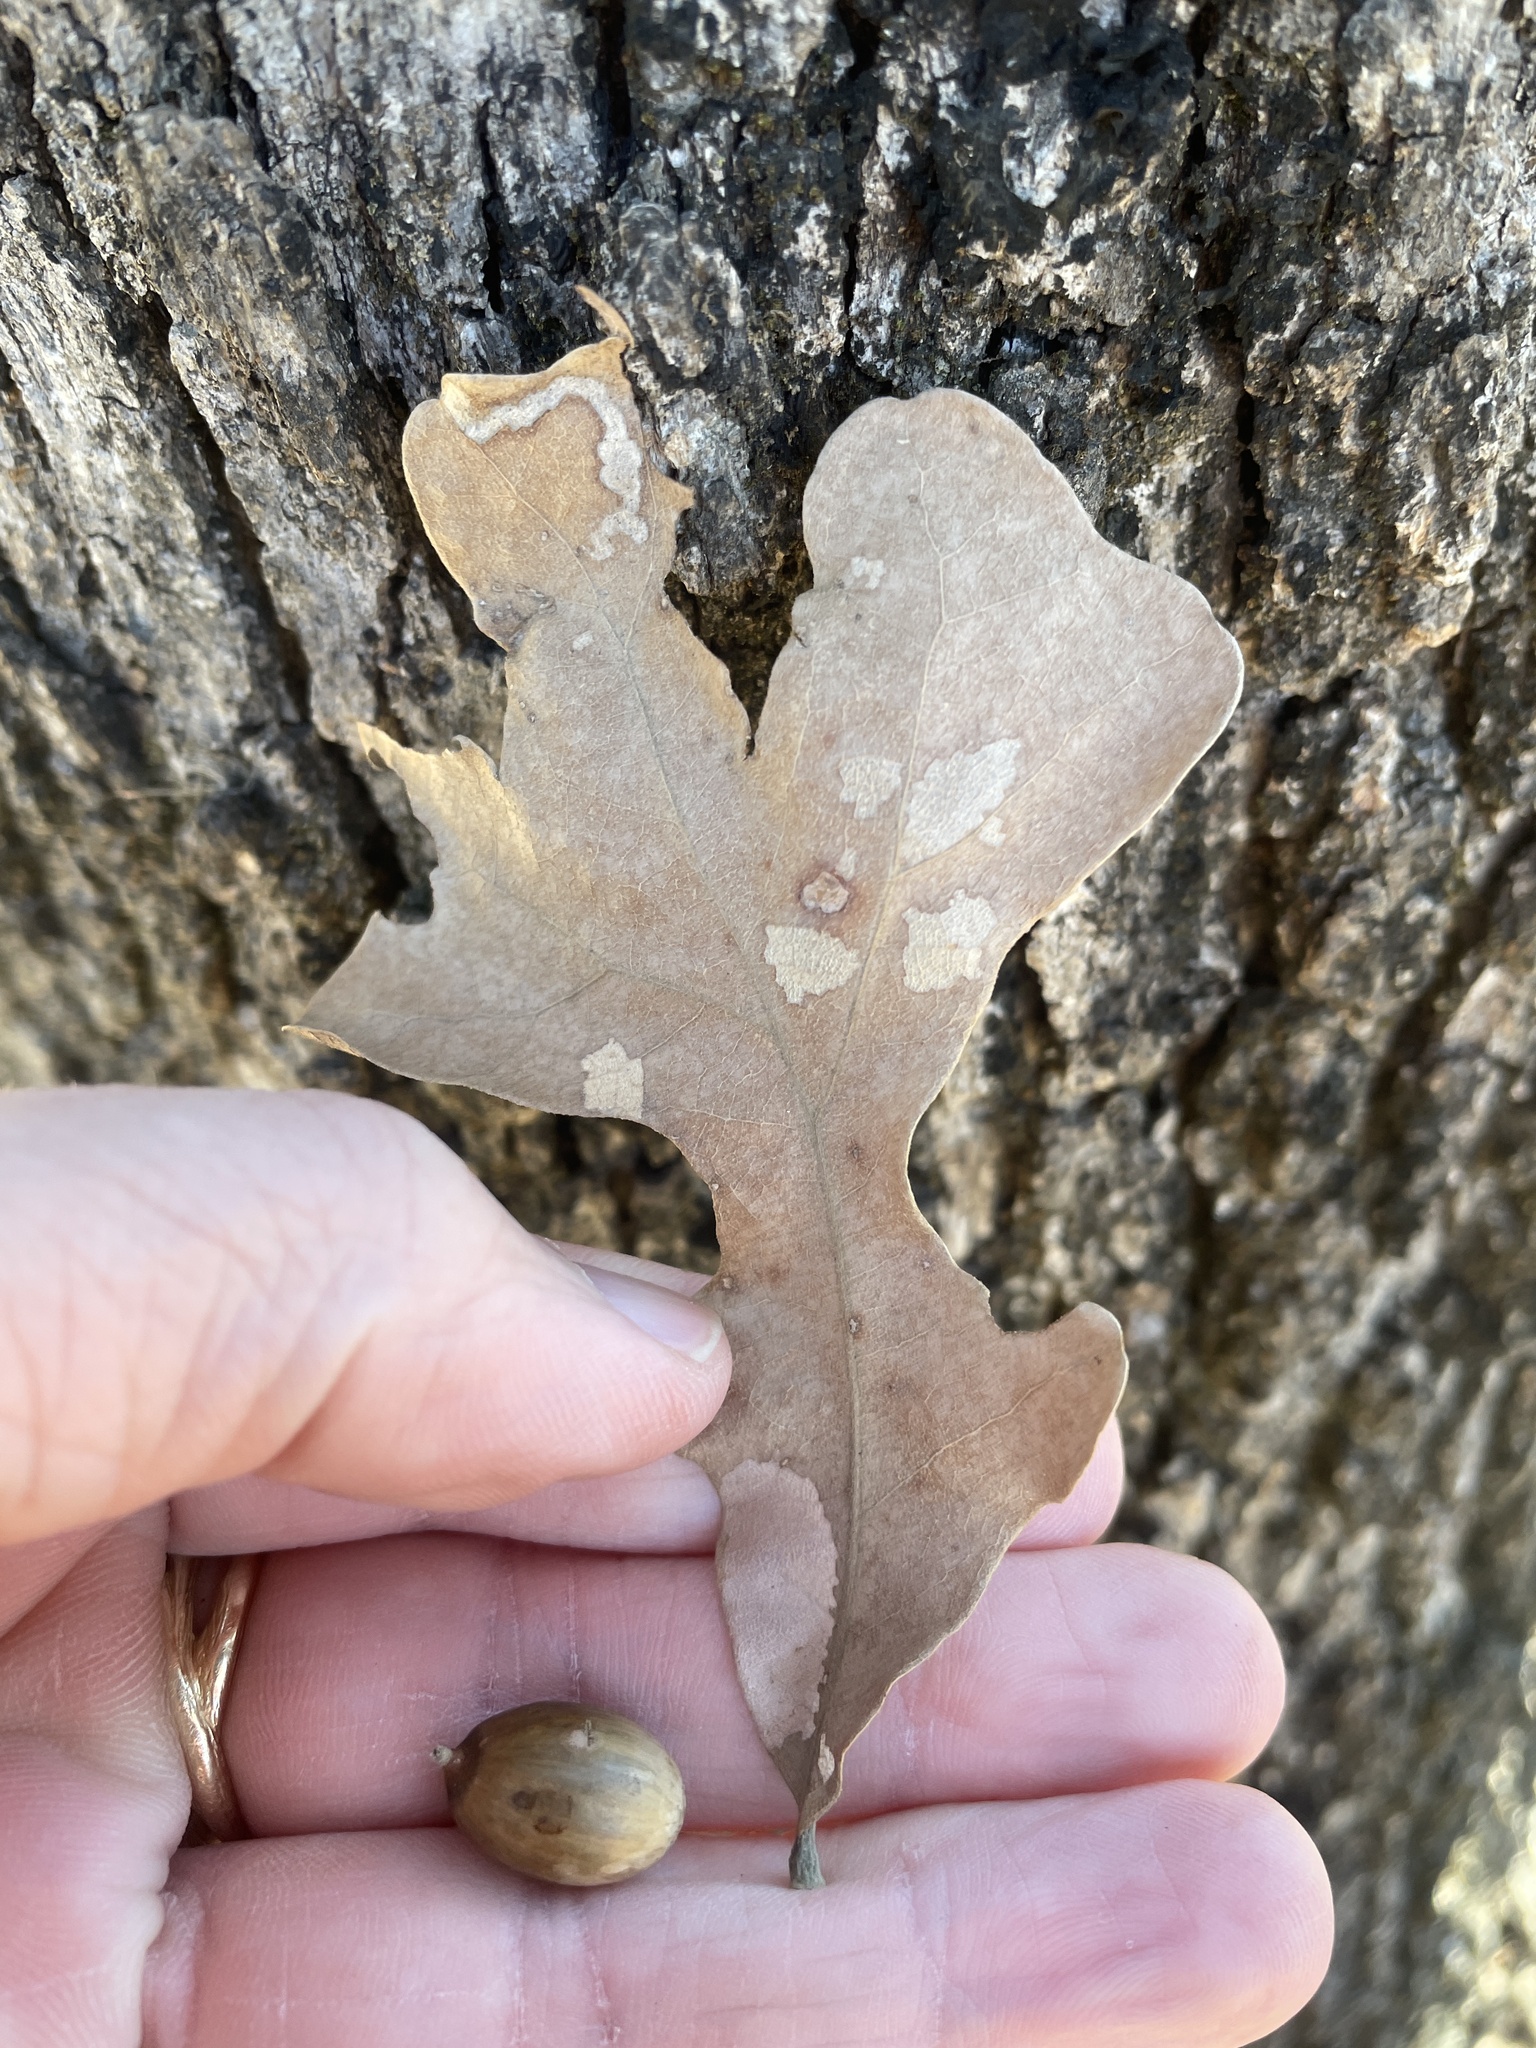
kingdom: Plantae
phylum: Tracheophyta
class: Magnoliopsida
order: Fagales
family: Fagaceae
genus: Quercus
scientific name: Quercus stellata
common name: Post oak
